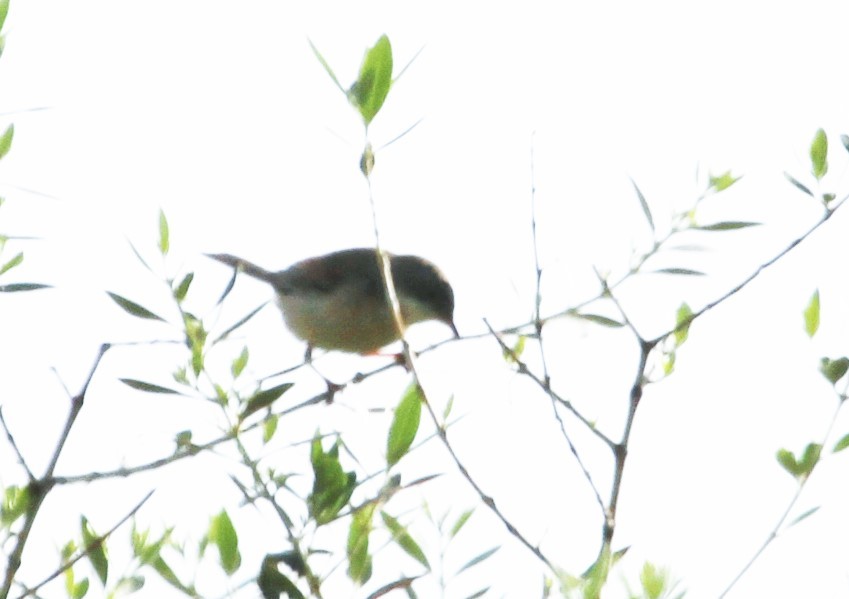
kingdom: Animalia
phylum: Chordata
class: Aves
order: Passeriformes
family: Sylviidae
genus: Sylvia
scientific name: Sylvia hortensis
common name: Orphean warbler
